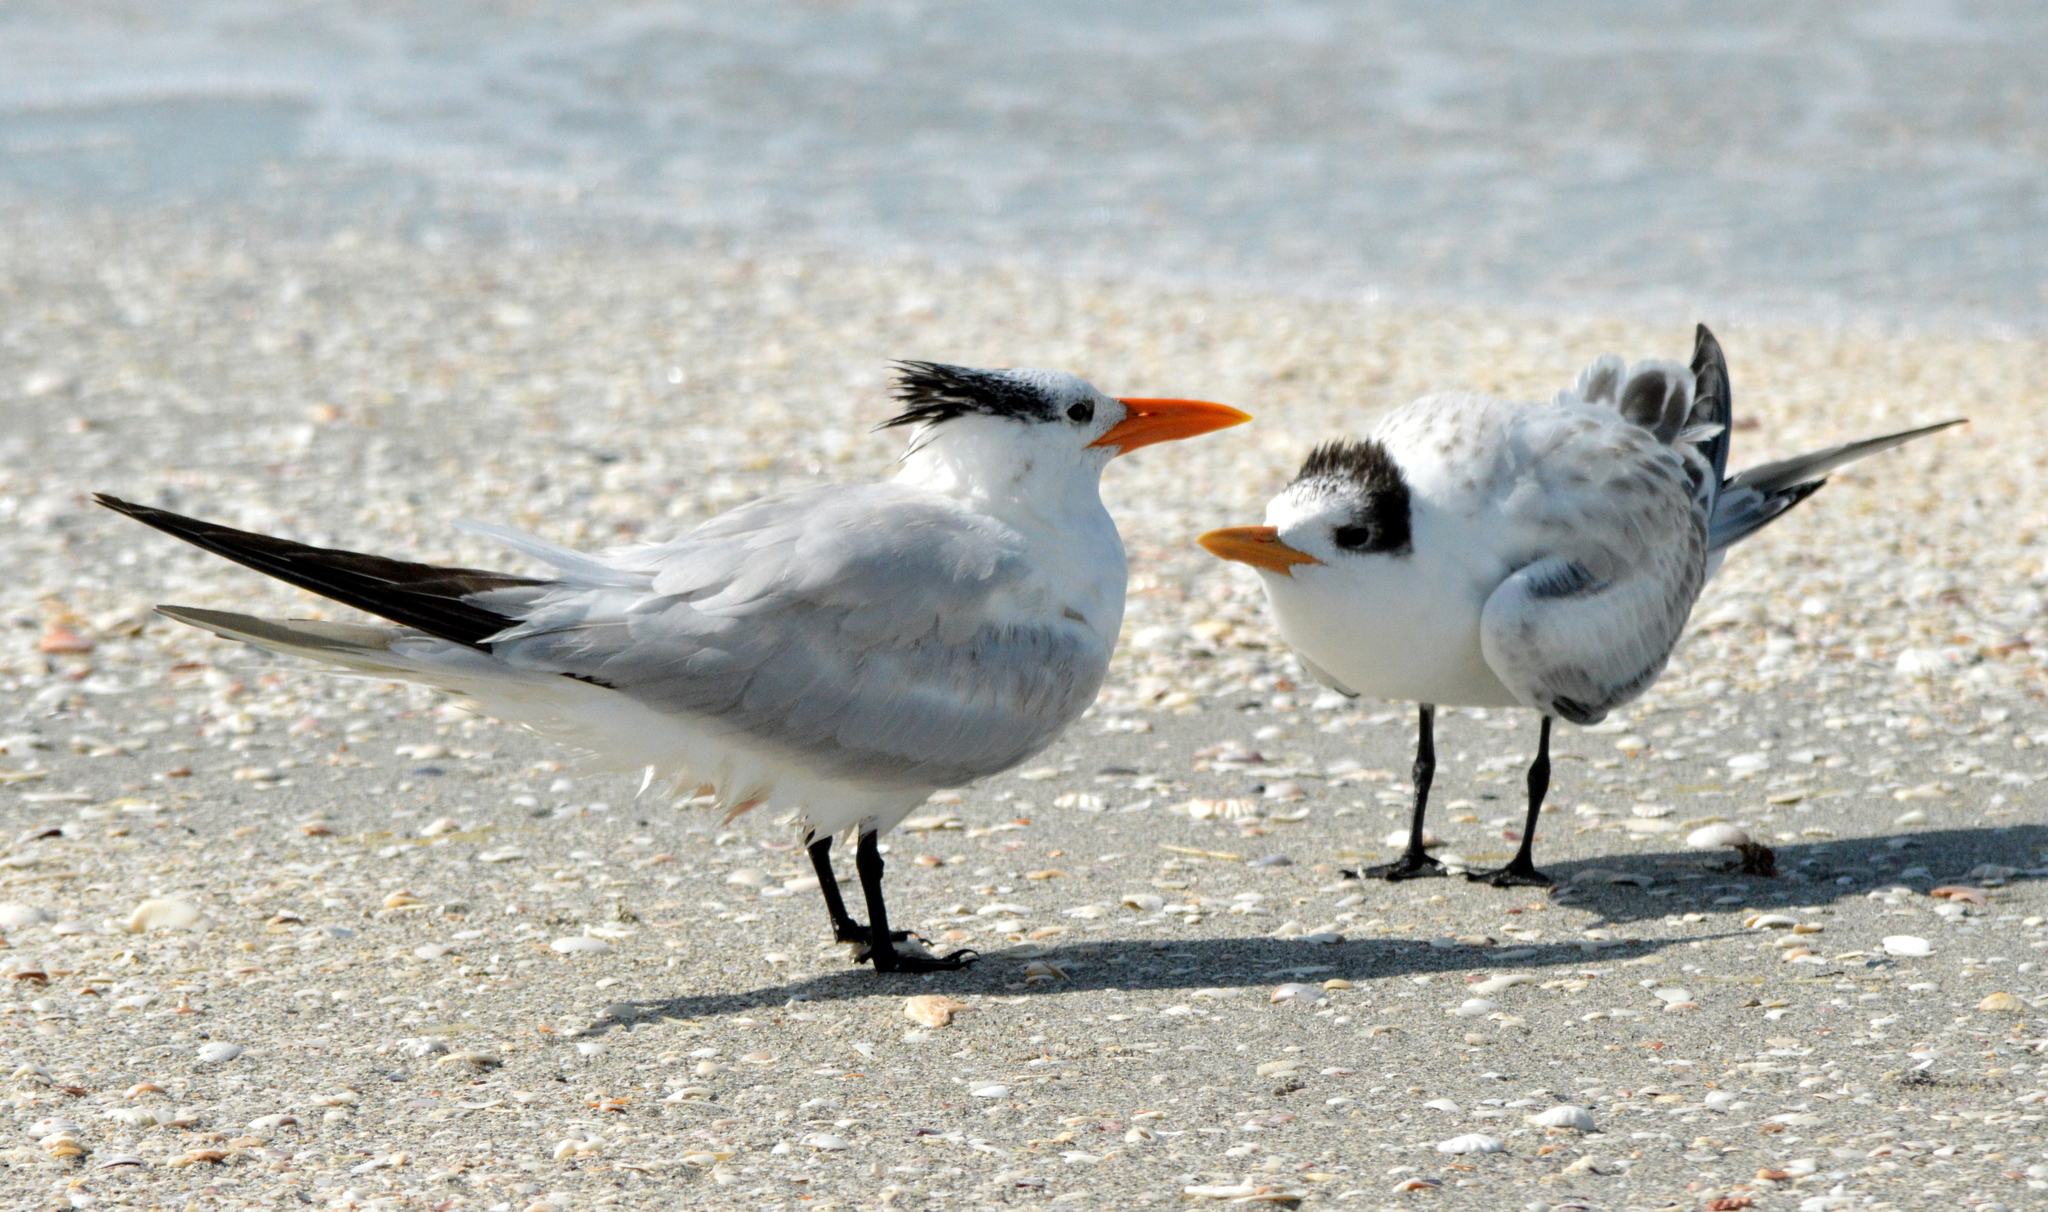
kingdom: Animalia
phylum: Chordata
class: Aves
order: Charadriiformes
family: Laridae
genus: Thalasseus
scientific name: Thalasseus maximus
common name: Royal tern
